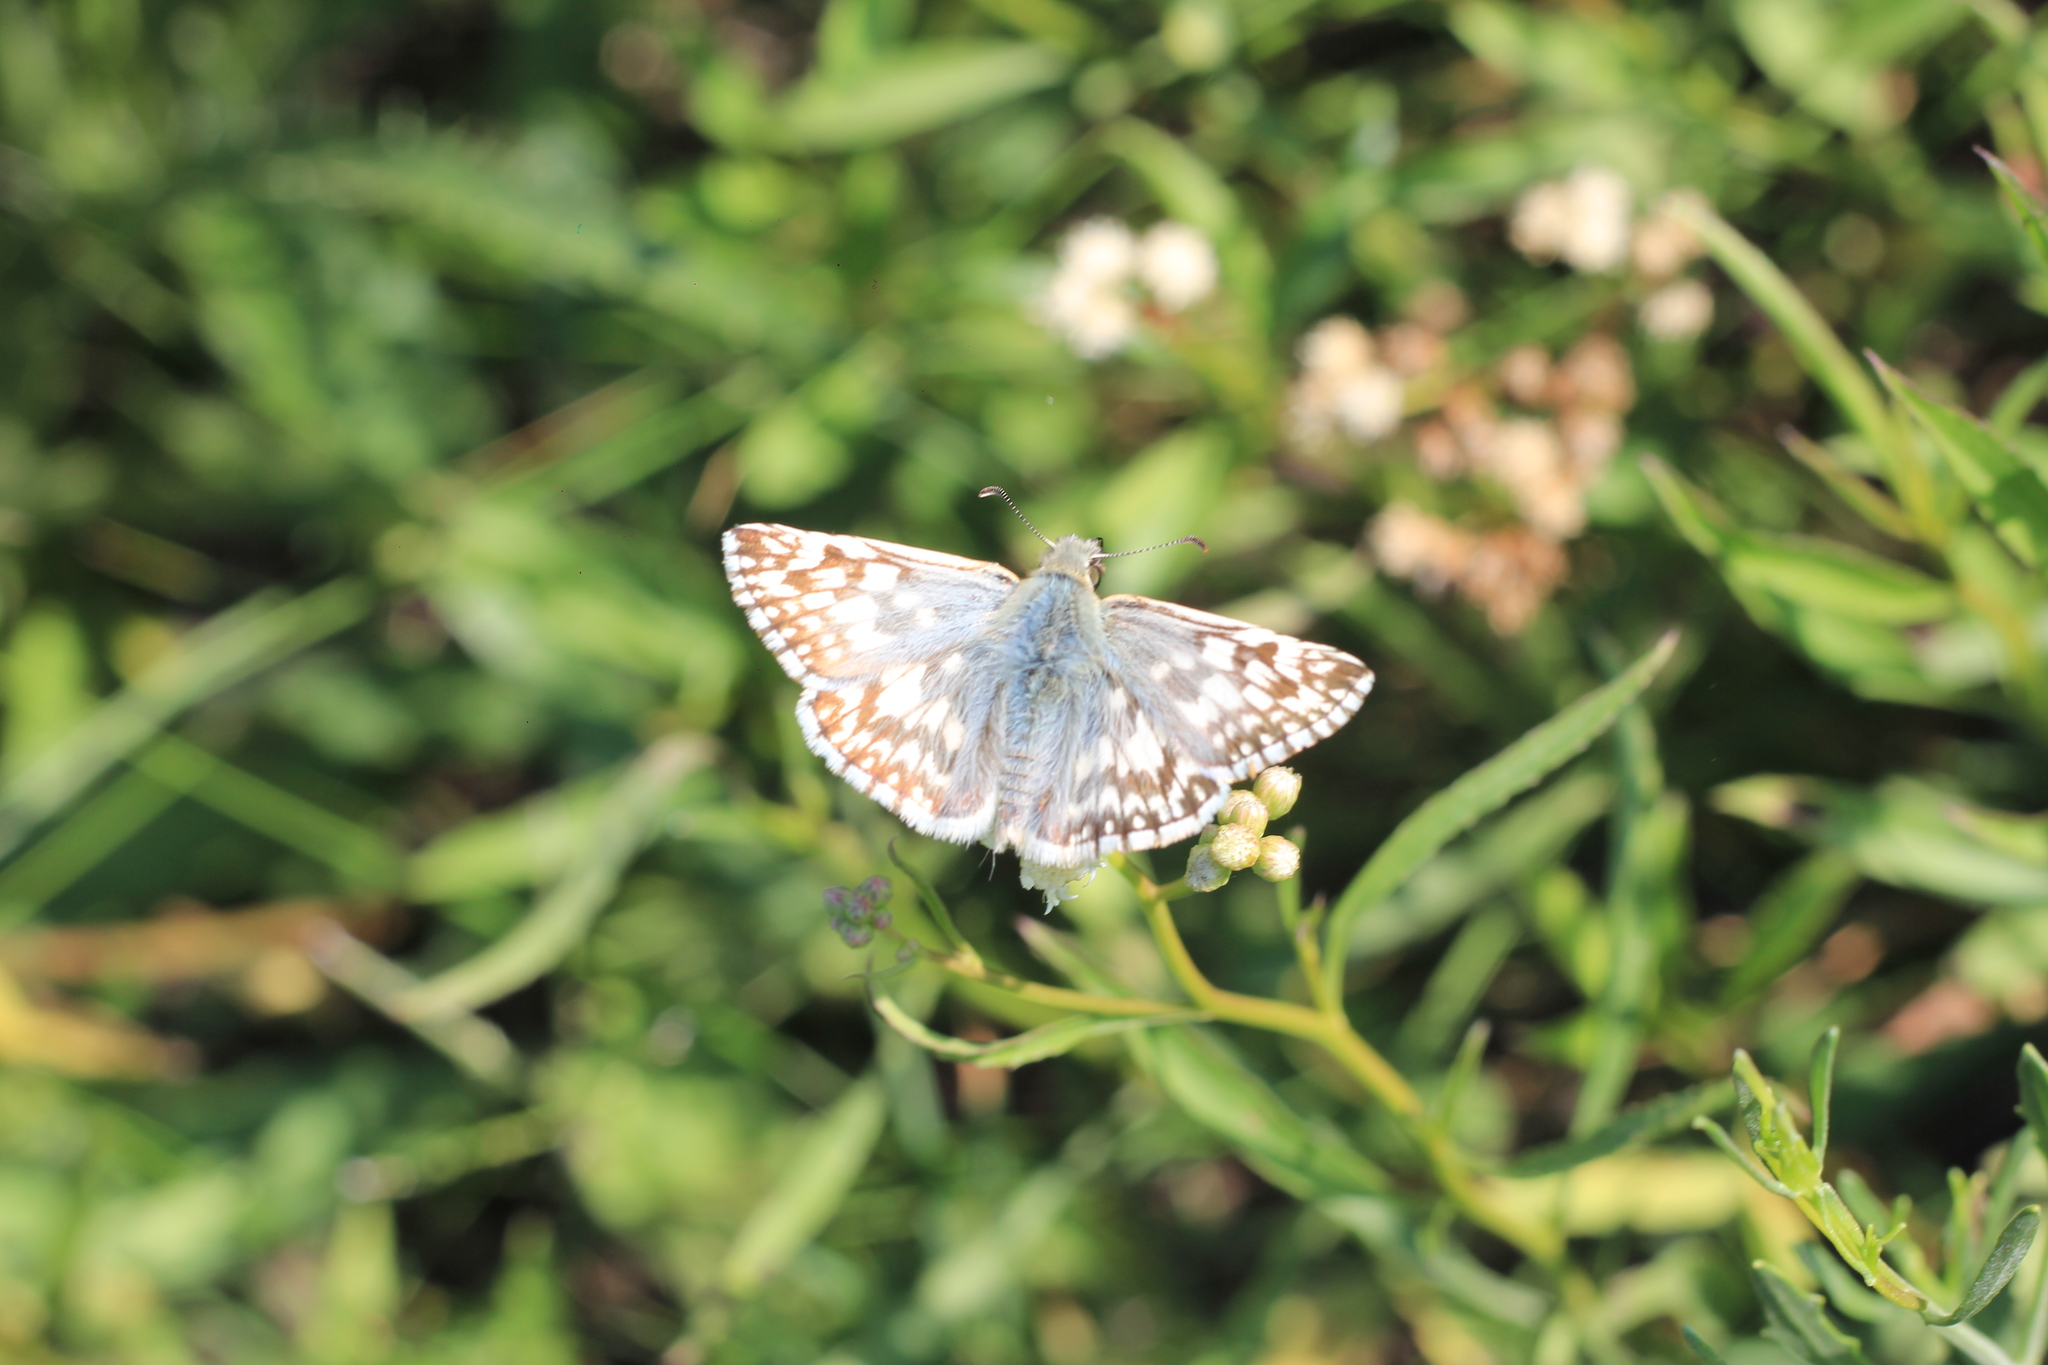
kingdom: Animalia
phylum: Arthropoda
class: Insecta
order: Lepidoptera
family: Hesperiidae
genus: Heliopetes
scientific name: Heliopetes americanus
